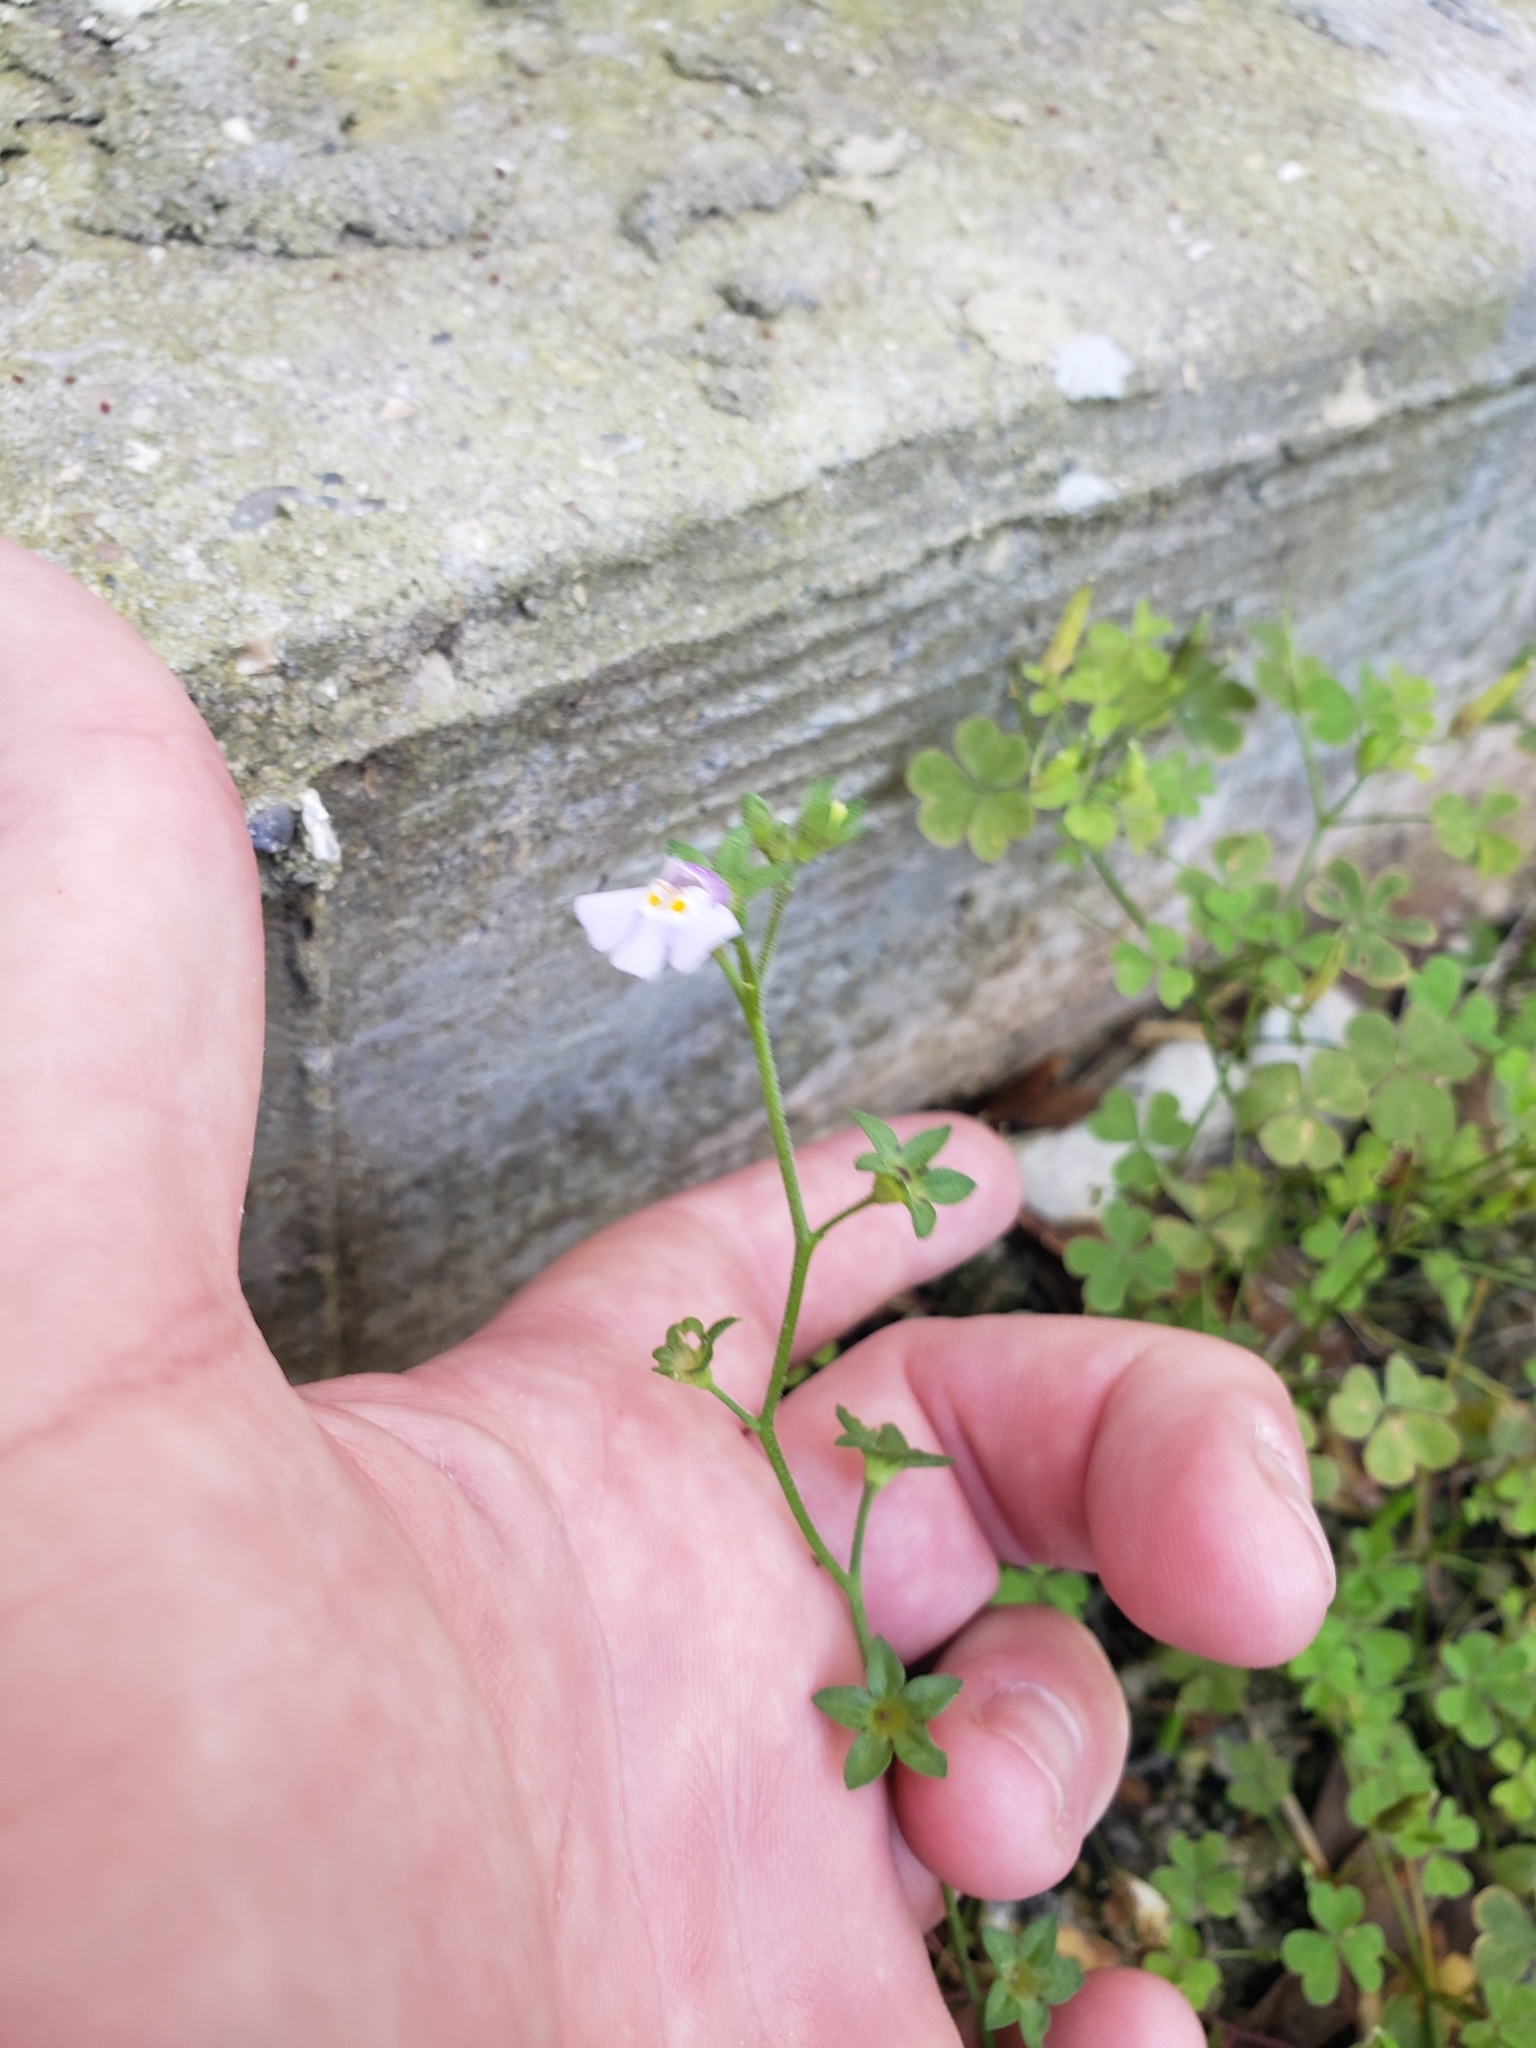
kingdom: Plantae
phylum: Tracheophyta
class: Magnoliopsida
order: Lamiales
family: Mazaceae
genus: Mazus
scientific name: Mazus pumilus
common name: Japanese mazus
